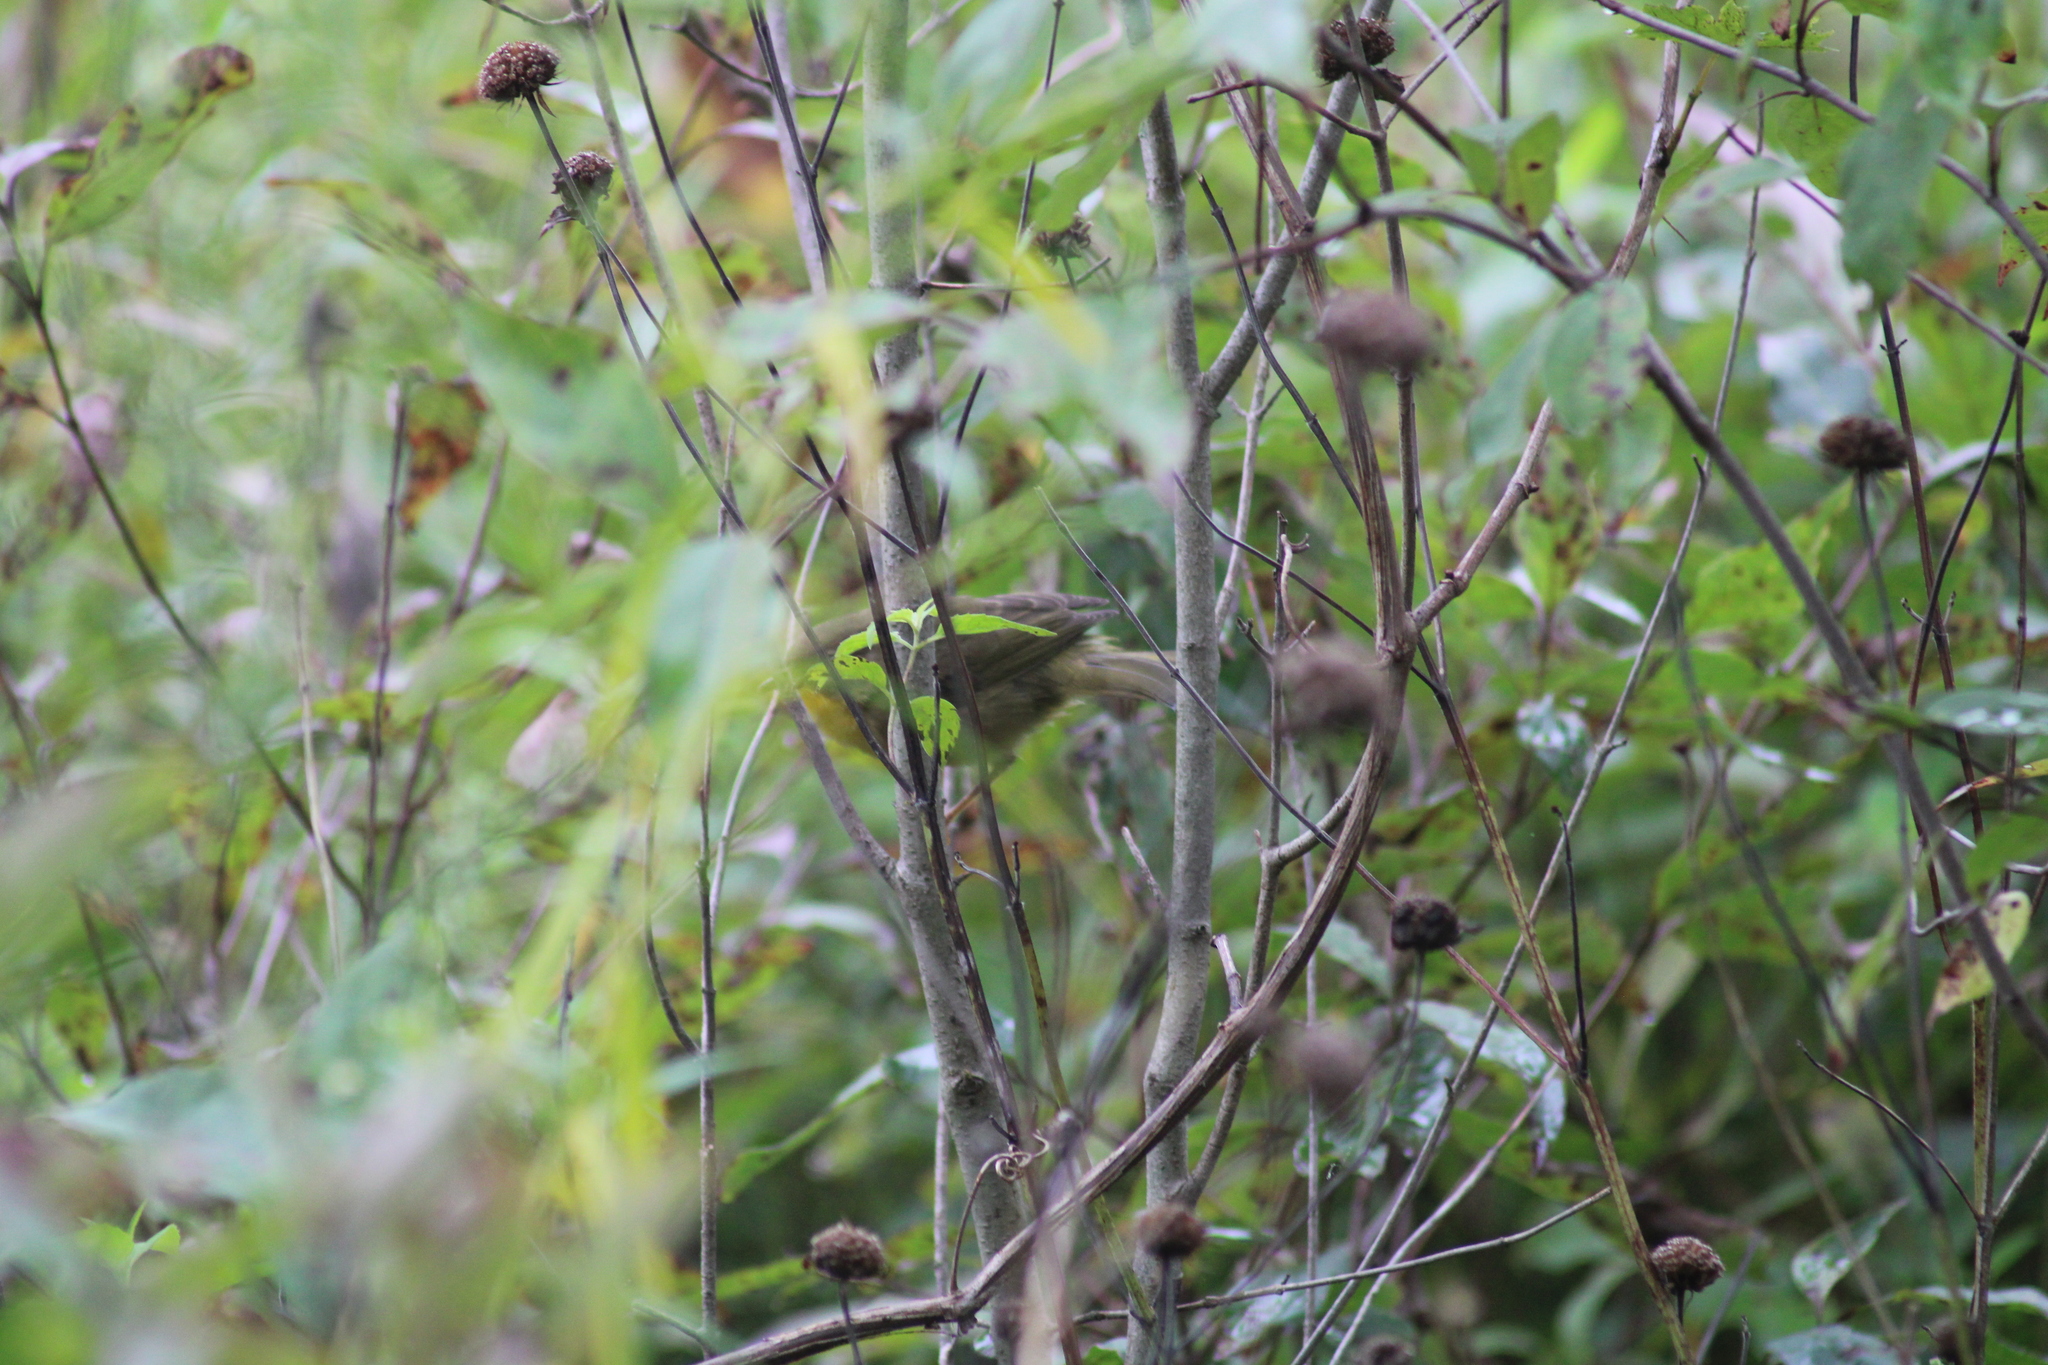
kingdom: Animalia
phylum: Chordata
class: Aves
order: Passeriformes
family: Parulidae
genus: Geothlypis
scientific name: Geothlypis trichas
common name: Common yellowthroat
